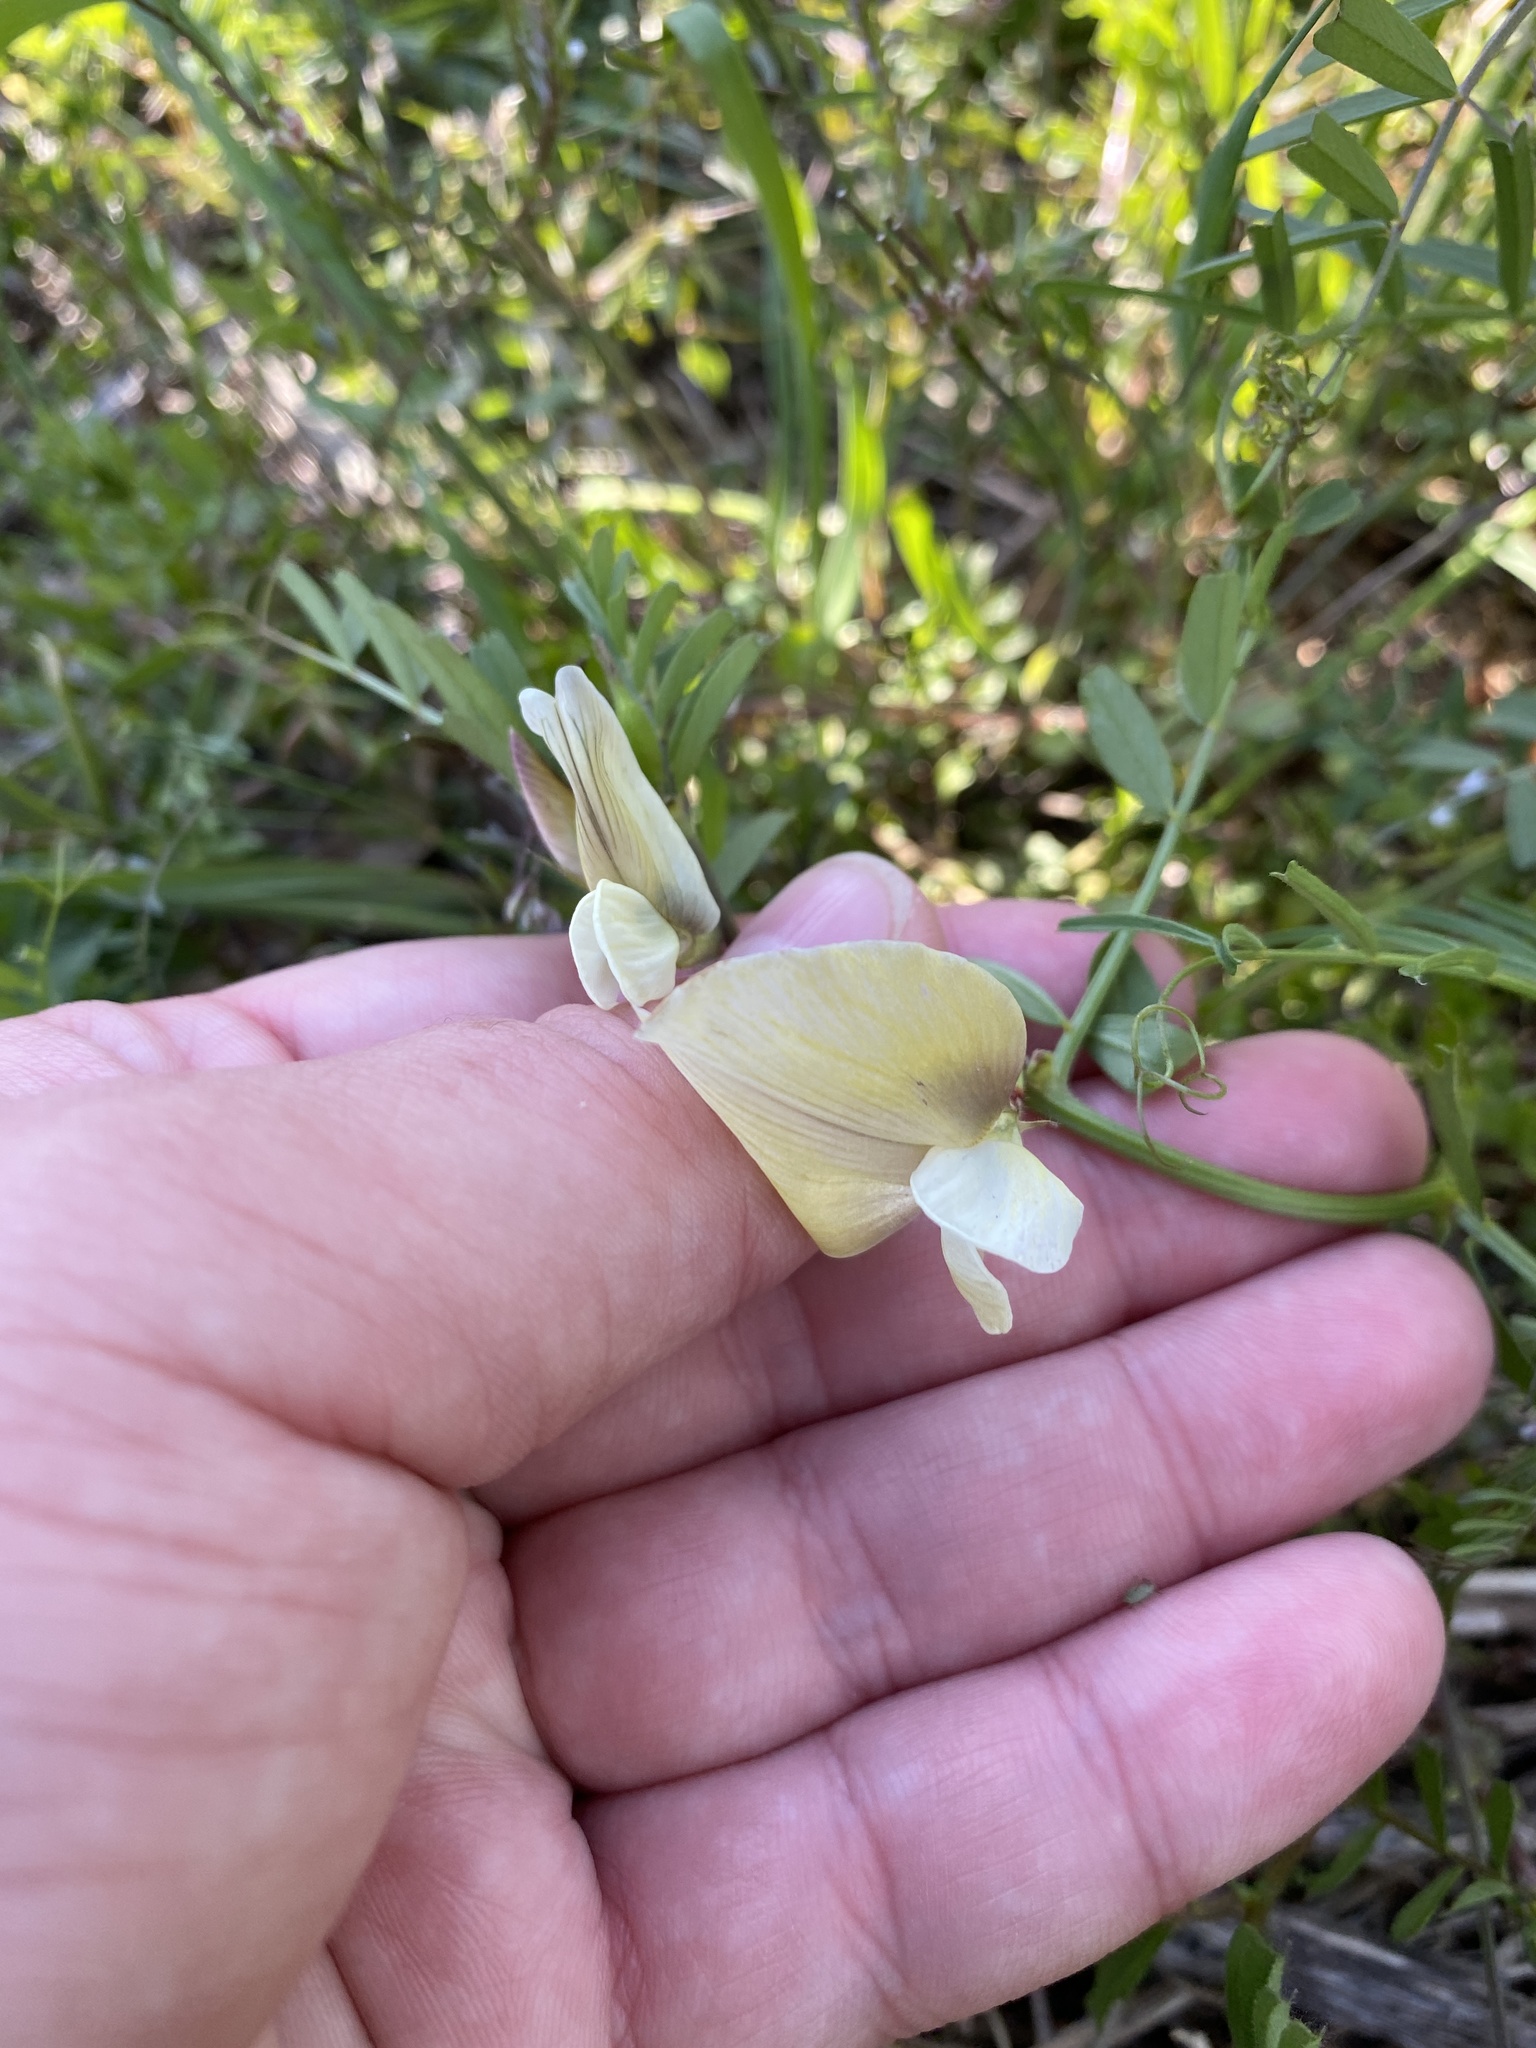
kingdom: Plantae
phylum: Tracheophyta
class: Magnoliopsida
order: Fabales
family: Fabaceae
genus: Vicia
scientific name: Vicia grandiflora
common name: Large yellow vetch
